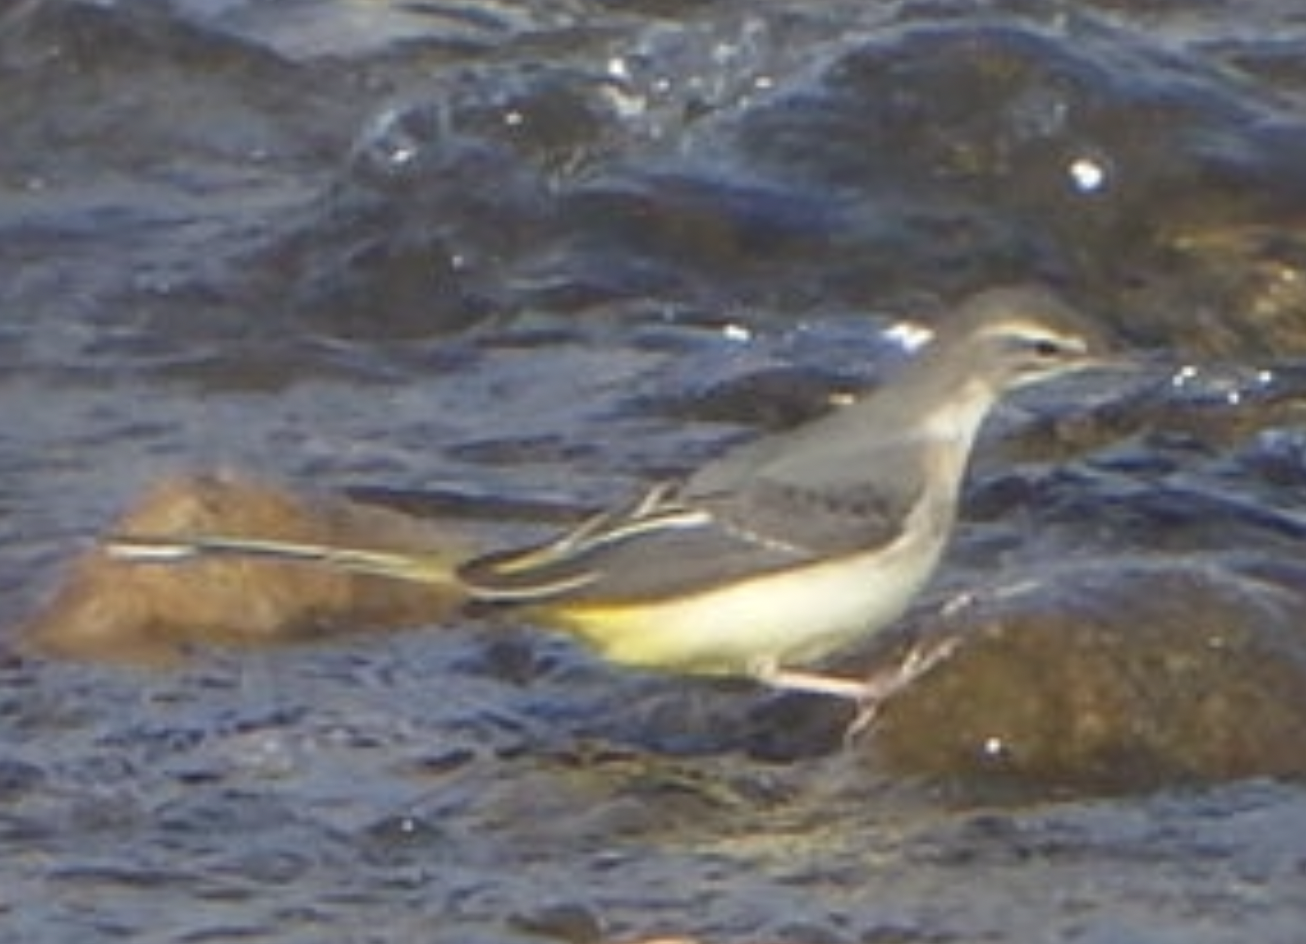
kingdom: Animalia
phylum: Chordata
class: Aves
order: Passeriformes
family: Motacillidae
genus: Motacilla
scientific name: Motacilla cinerea
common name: Grey wagtail
